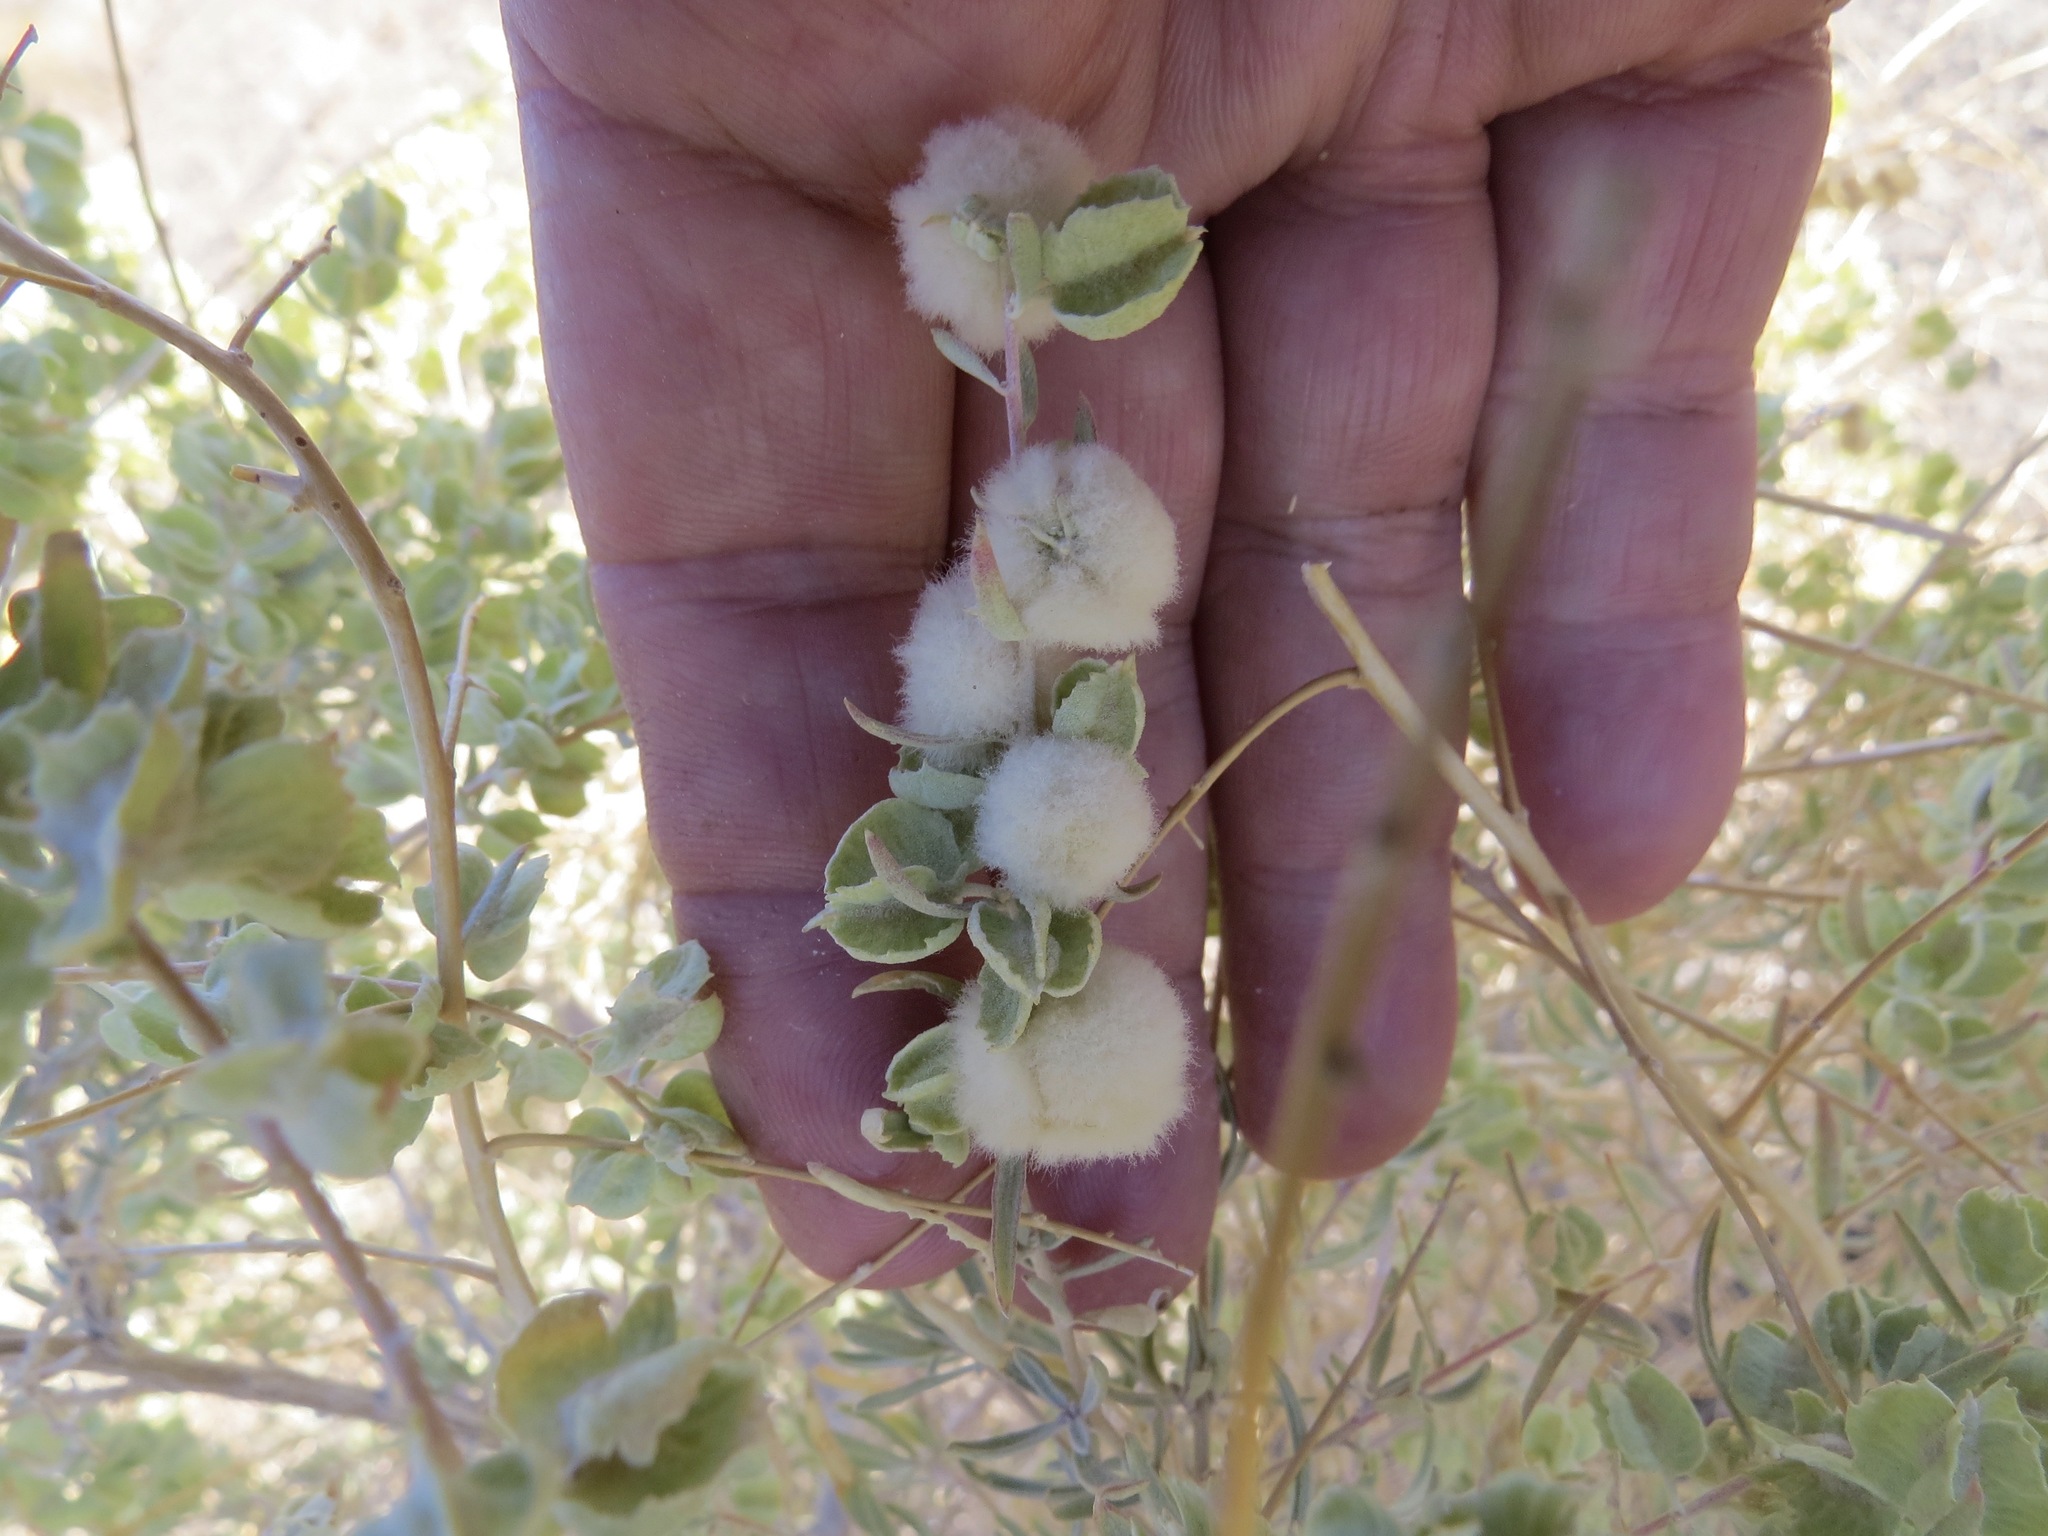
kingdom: Animalia
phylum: Arthropoda
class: Insecta
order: Diptera
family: Cecidomyiidae
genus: Asphondylia
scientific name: Asphondylia neomexicana
